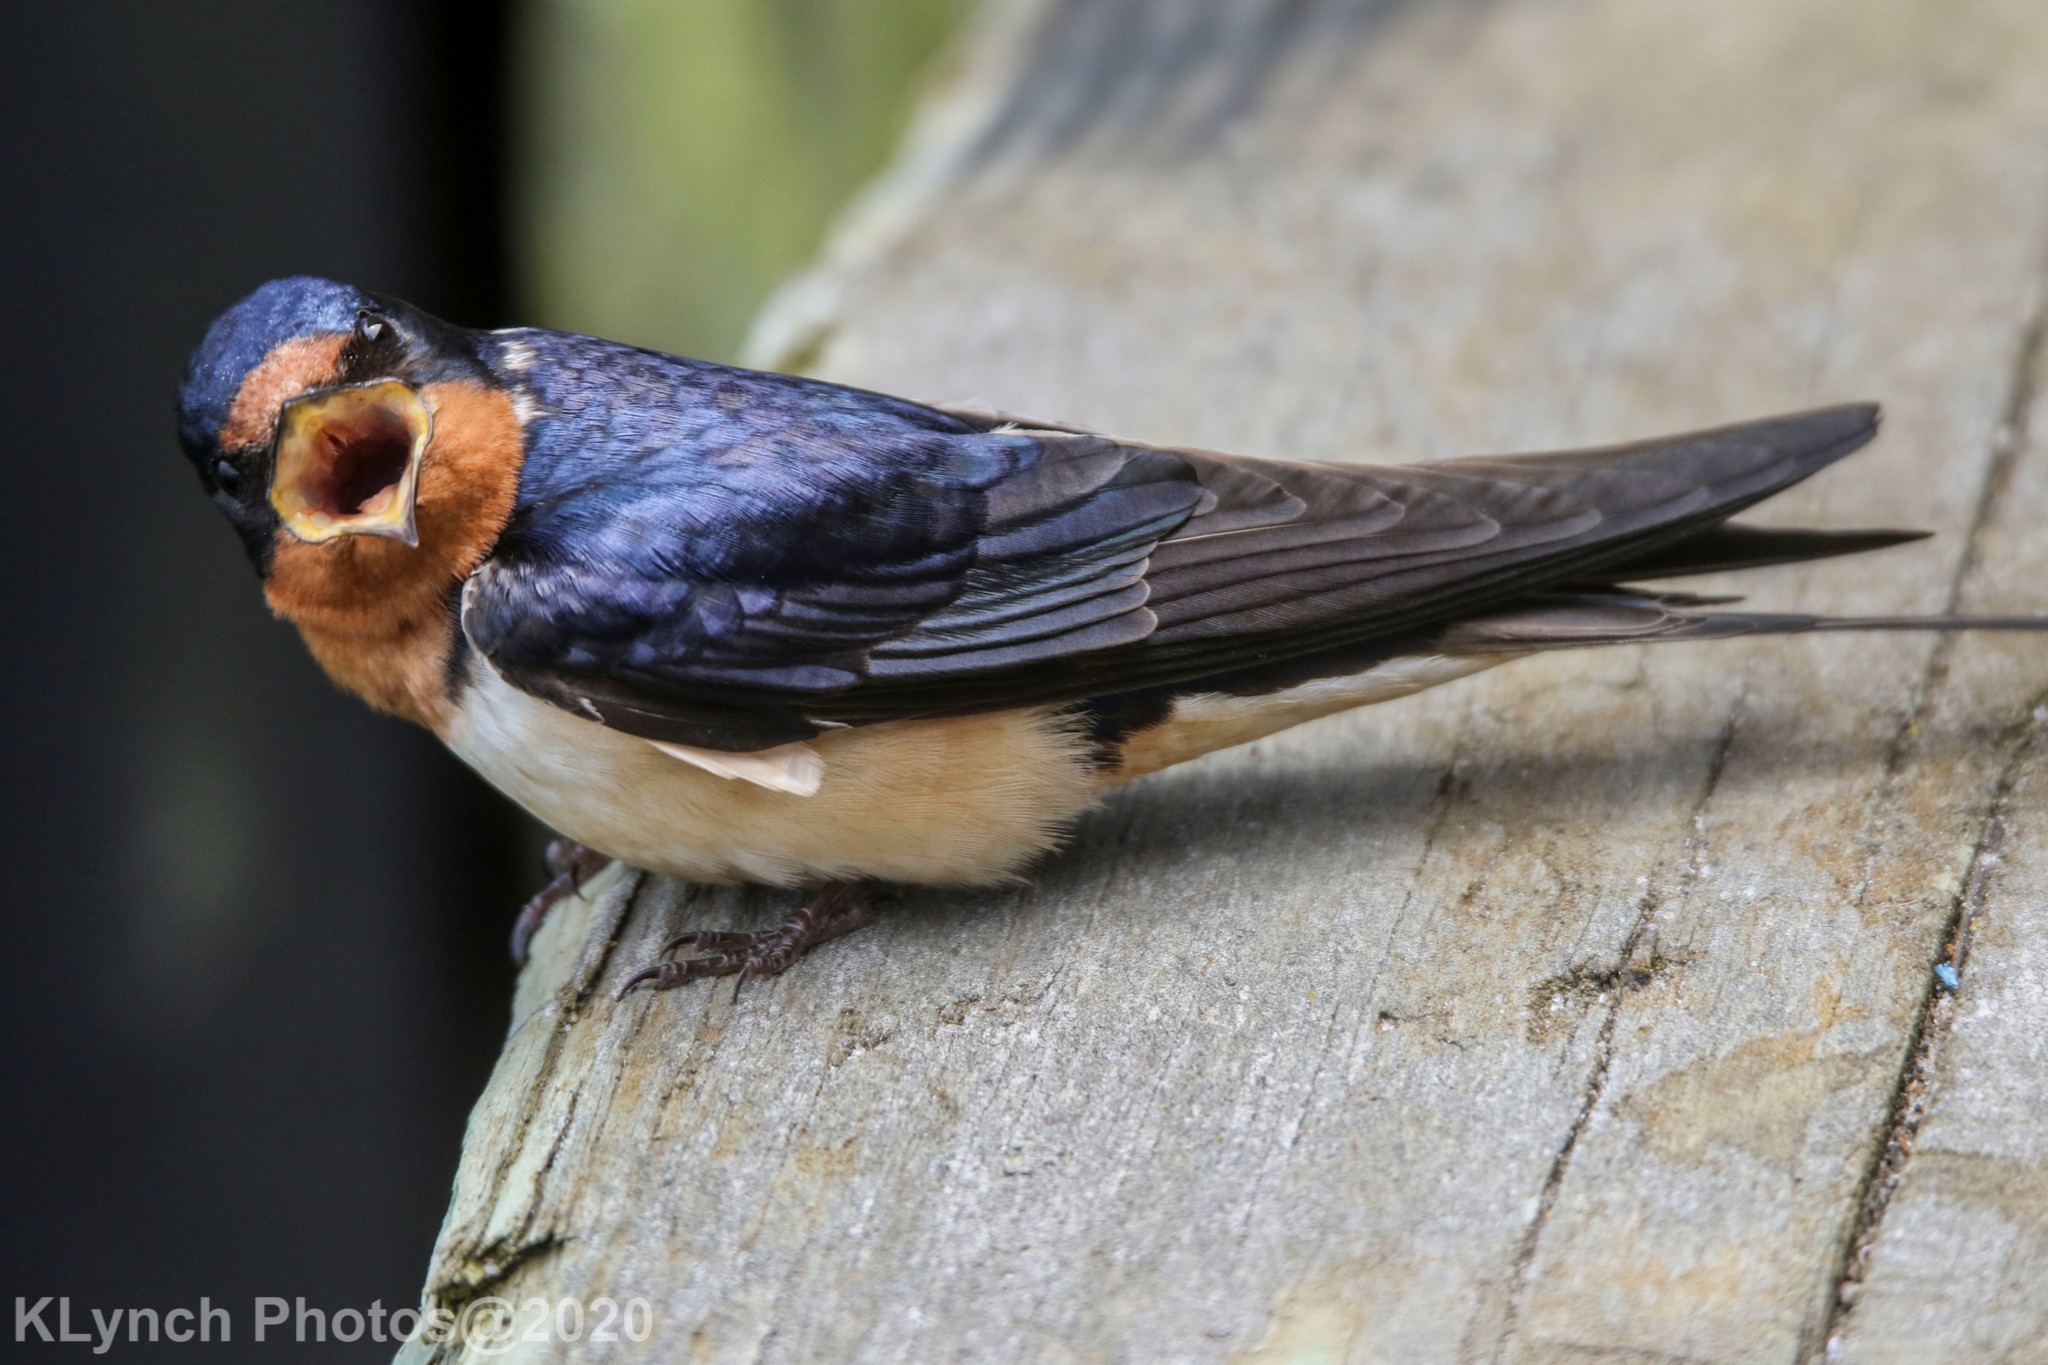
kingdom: Animalia
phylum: Chordata
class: Aves
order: Passeriformes
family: Hirundinidae
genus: Hirundo
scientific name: Hirundo rustica
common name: Barn swallow
